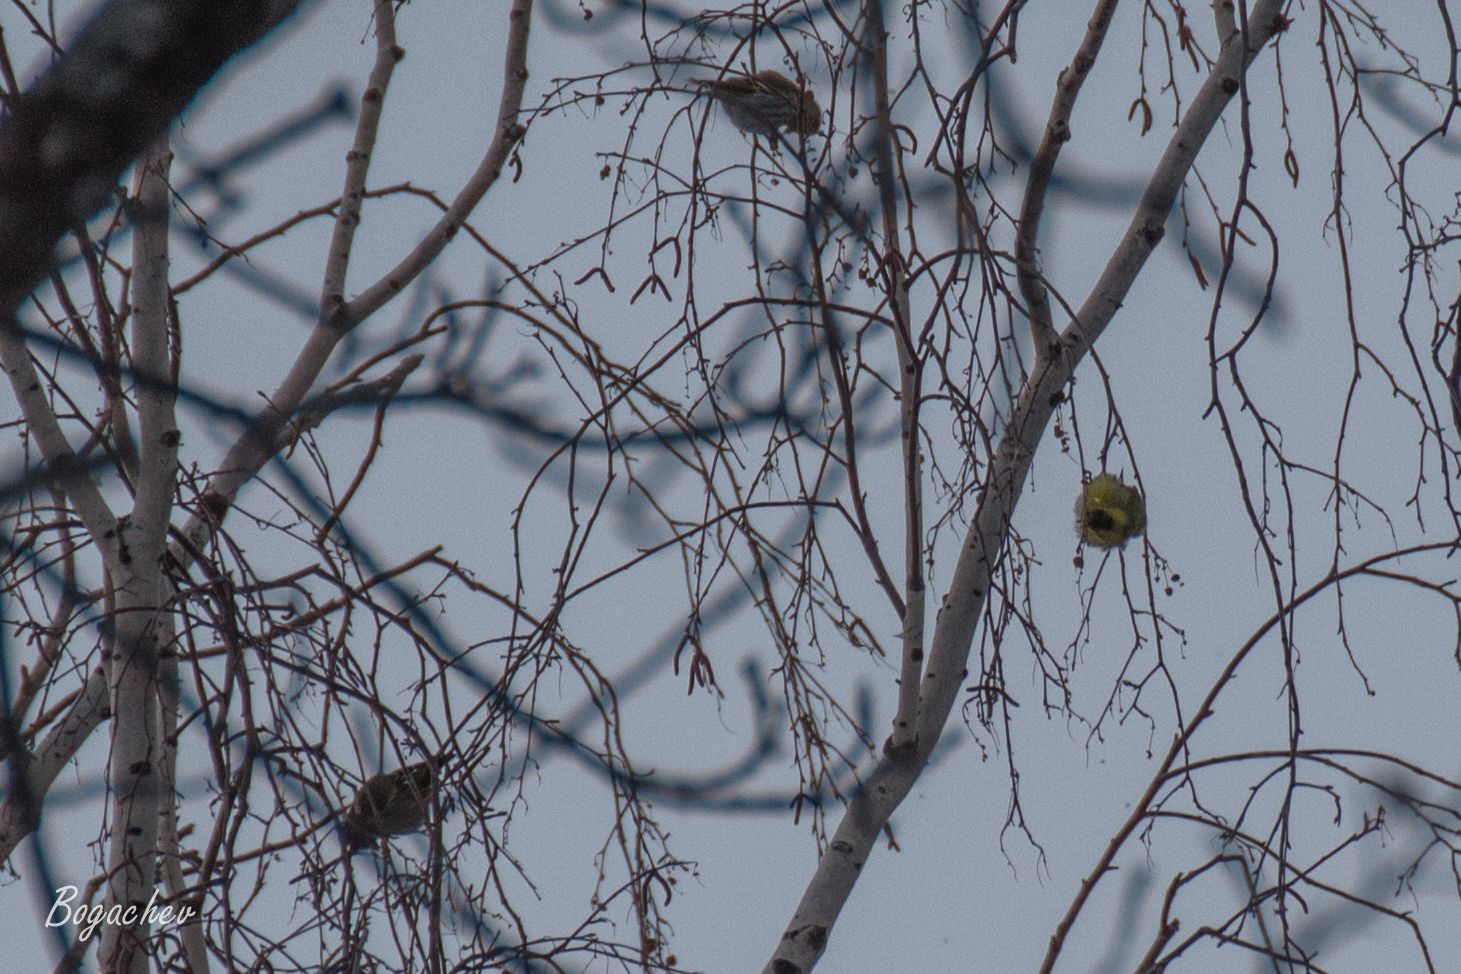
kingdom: Animalia
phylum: Chordata
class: Aves
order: Passeriformes
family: Fringillidae
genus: Spinus
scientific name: Spinus spinus
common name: Eurasian siskin
